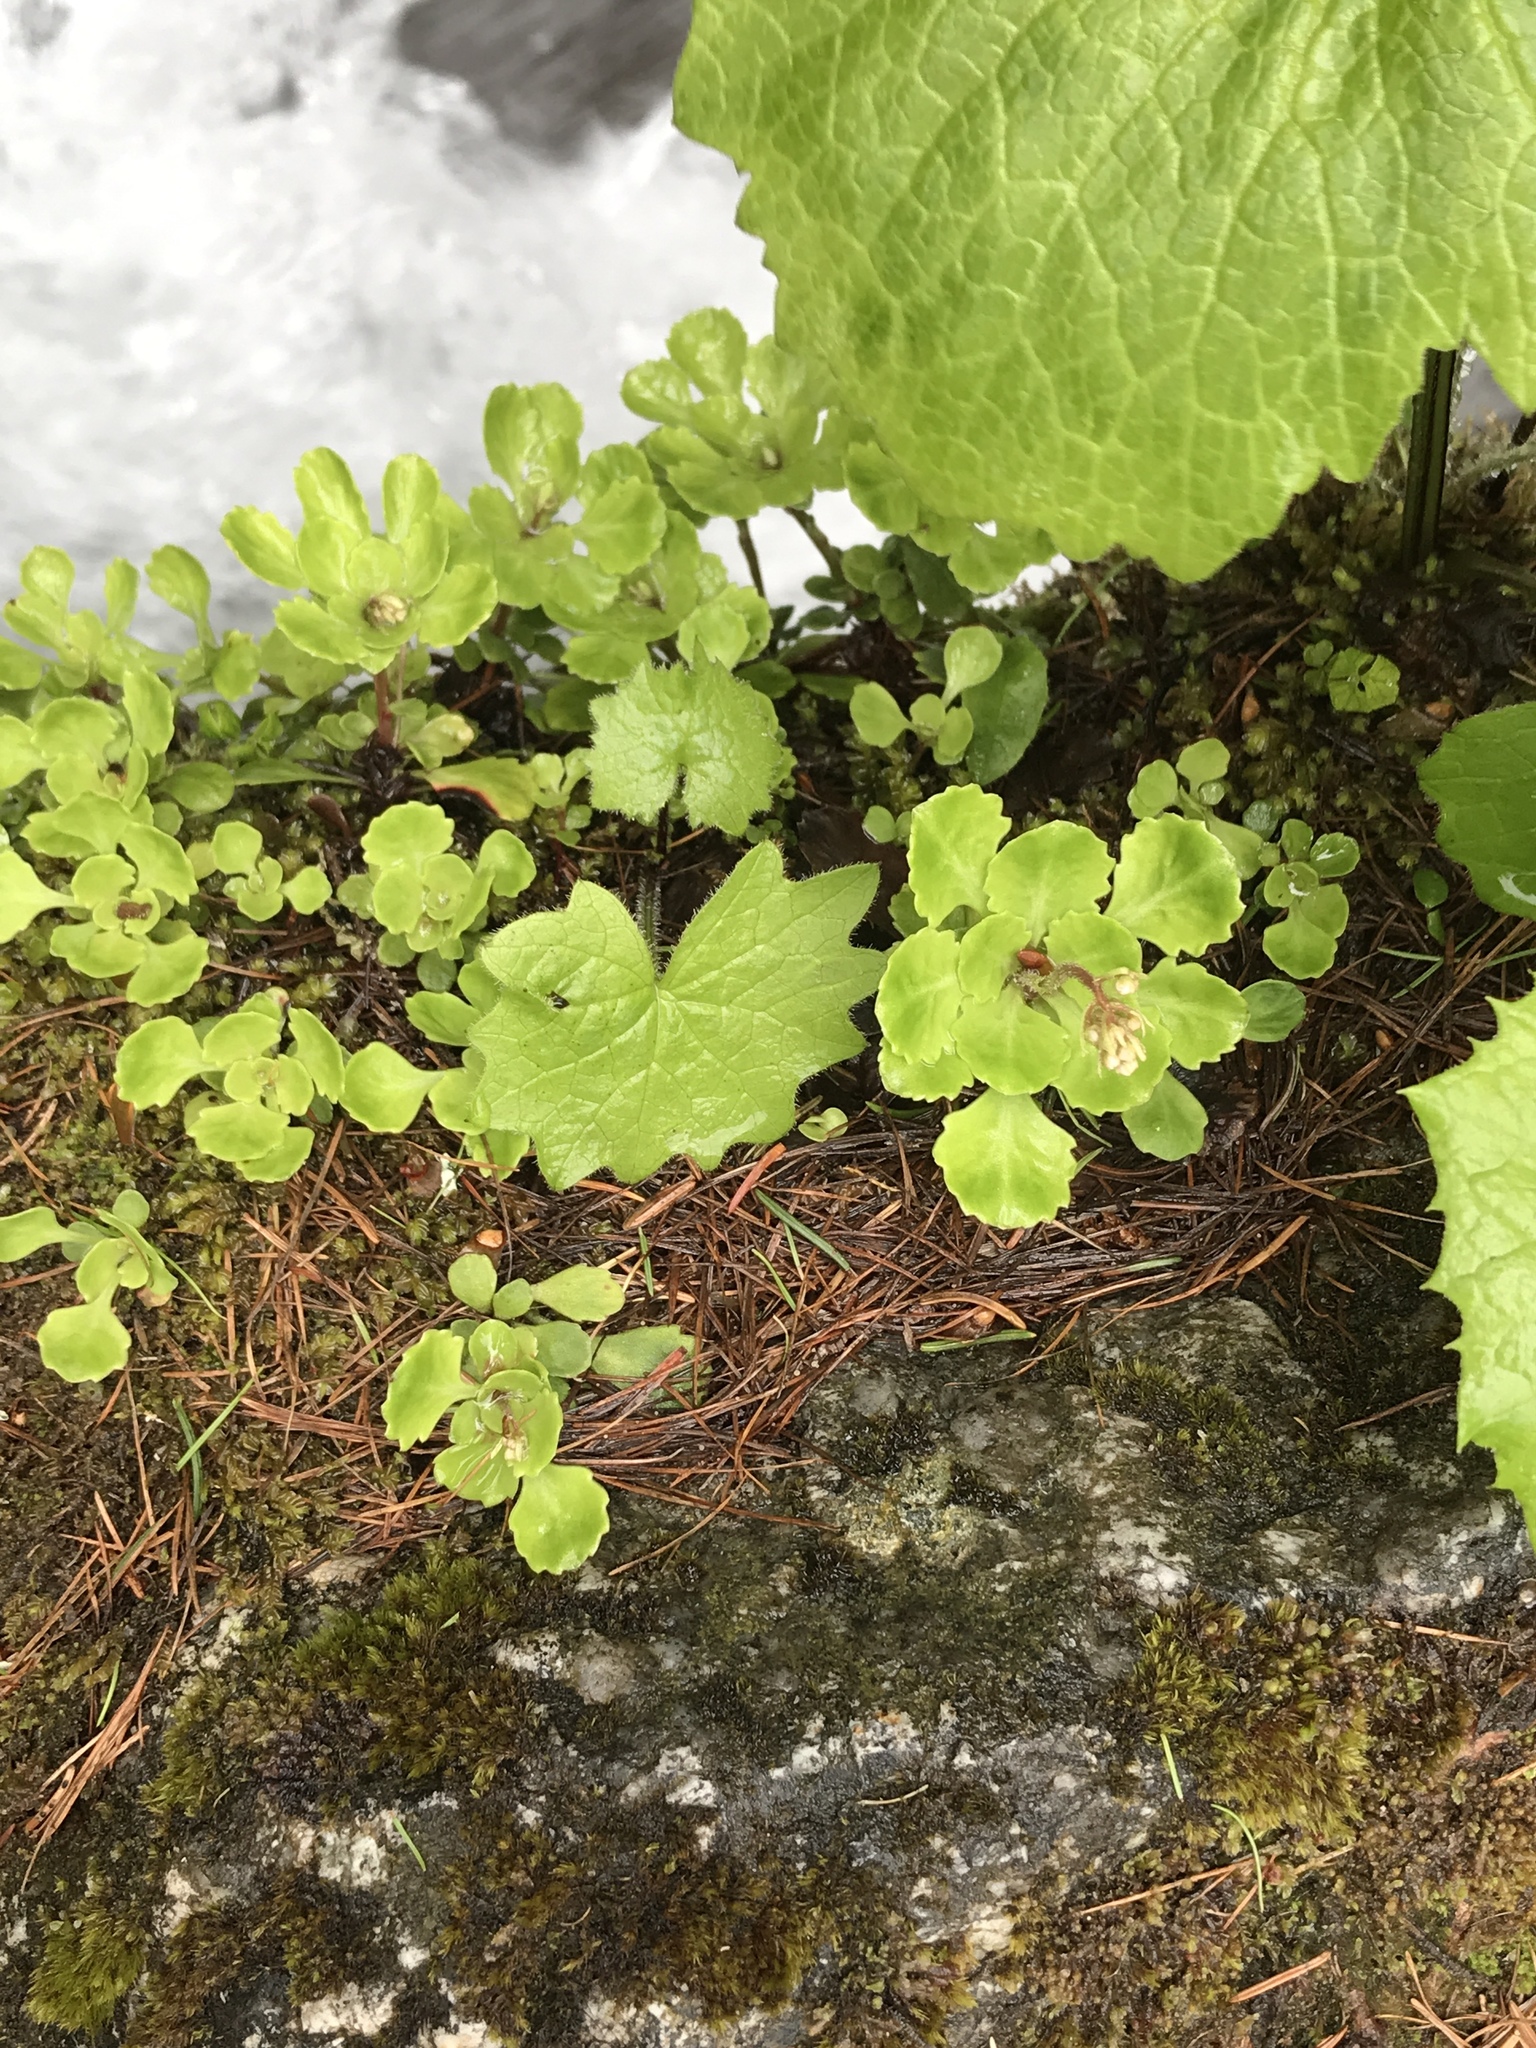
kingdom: Plantae
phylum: Tracheophyta
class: Magnoliopsida
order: Saxifragales
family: Saxifragaceae
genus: Saxifraga
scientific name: Saxifraga cuneifolia
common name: Lesser londonpride
